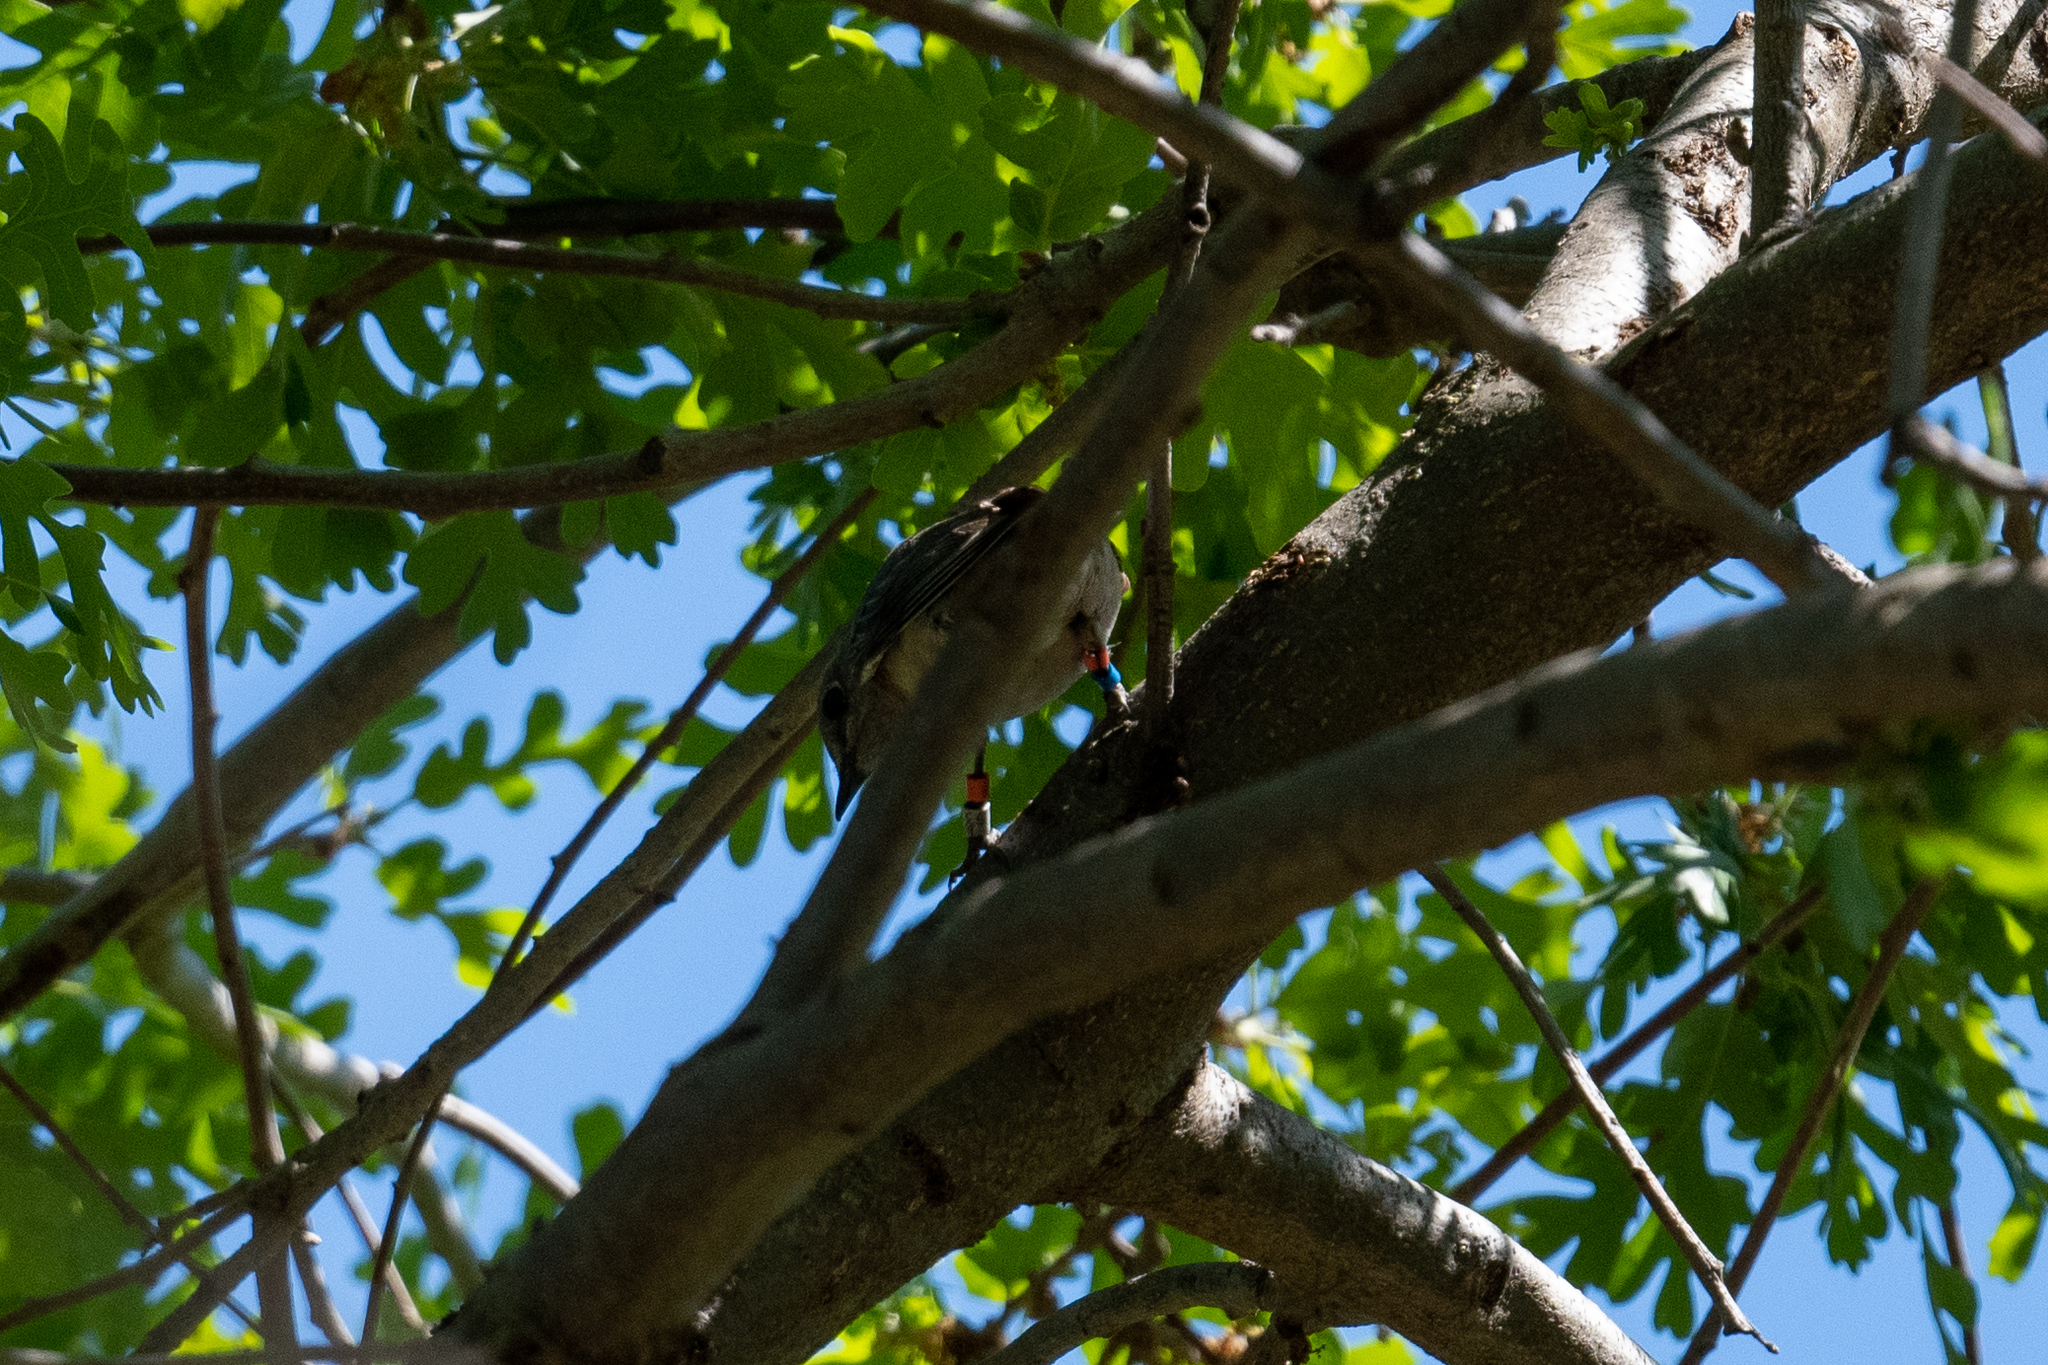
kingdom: Animalia
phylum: Chordata
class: Aves
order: Passeriformes
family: Turdidae
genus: Sialia
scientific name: Sialia mexicana
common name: Western bluebird
